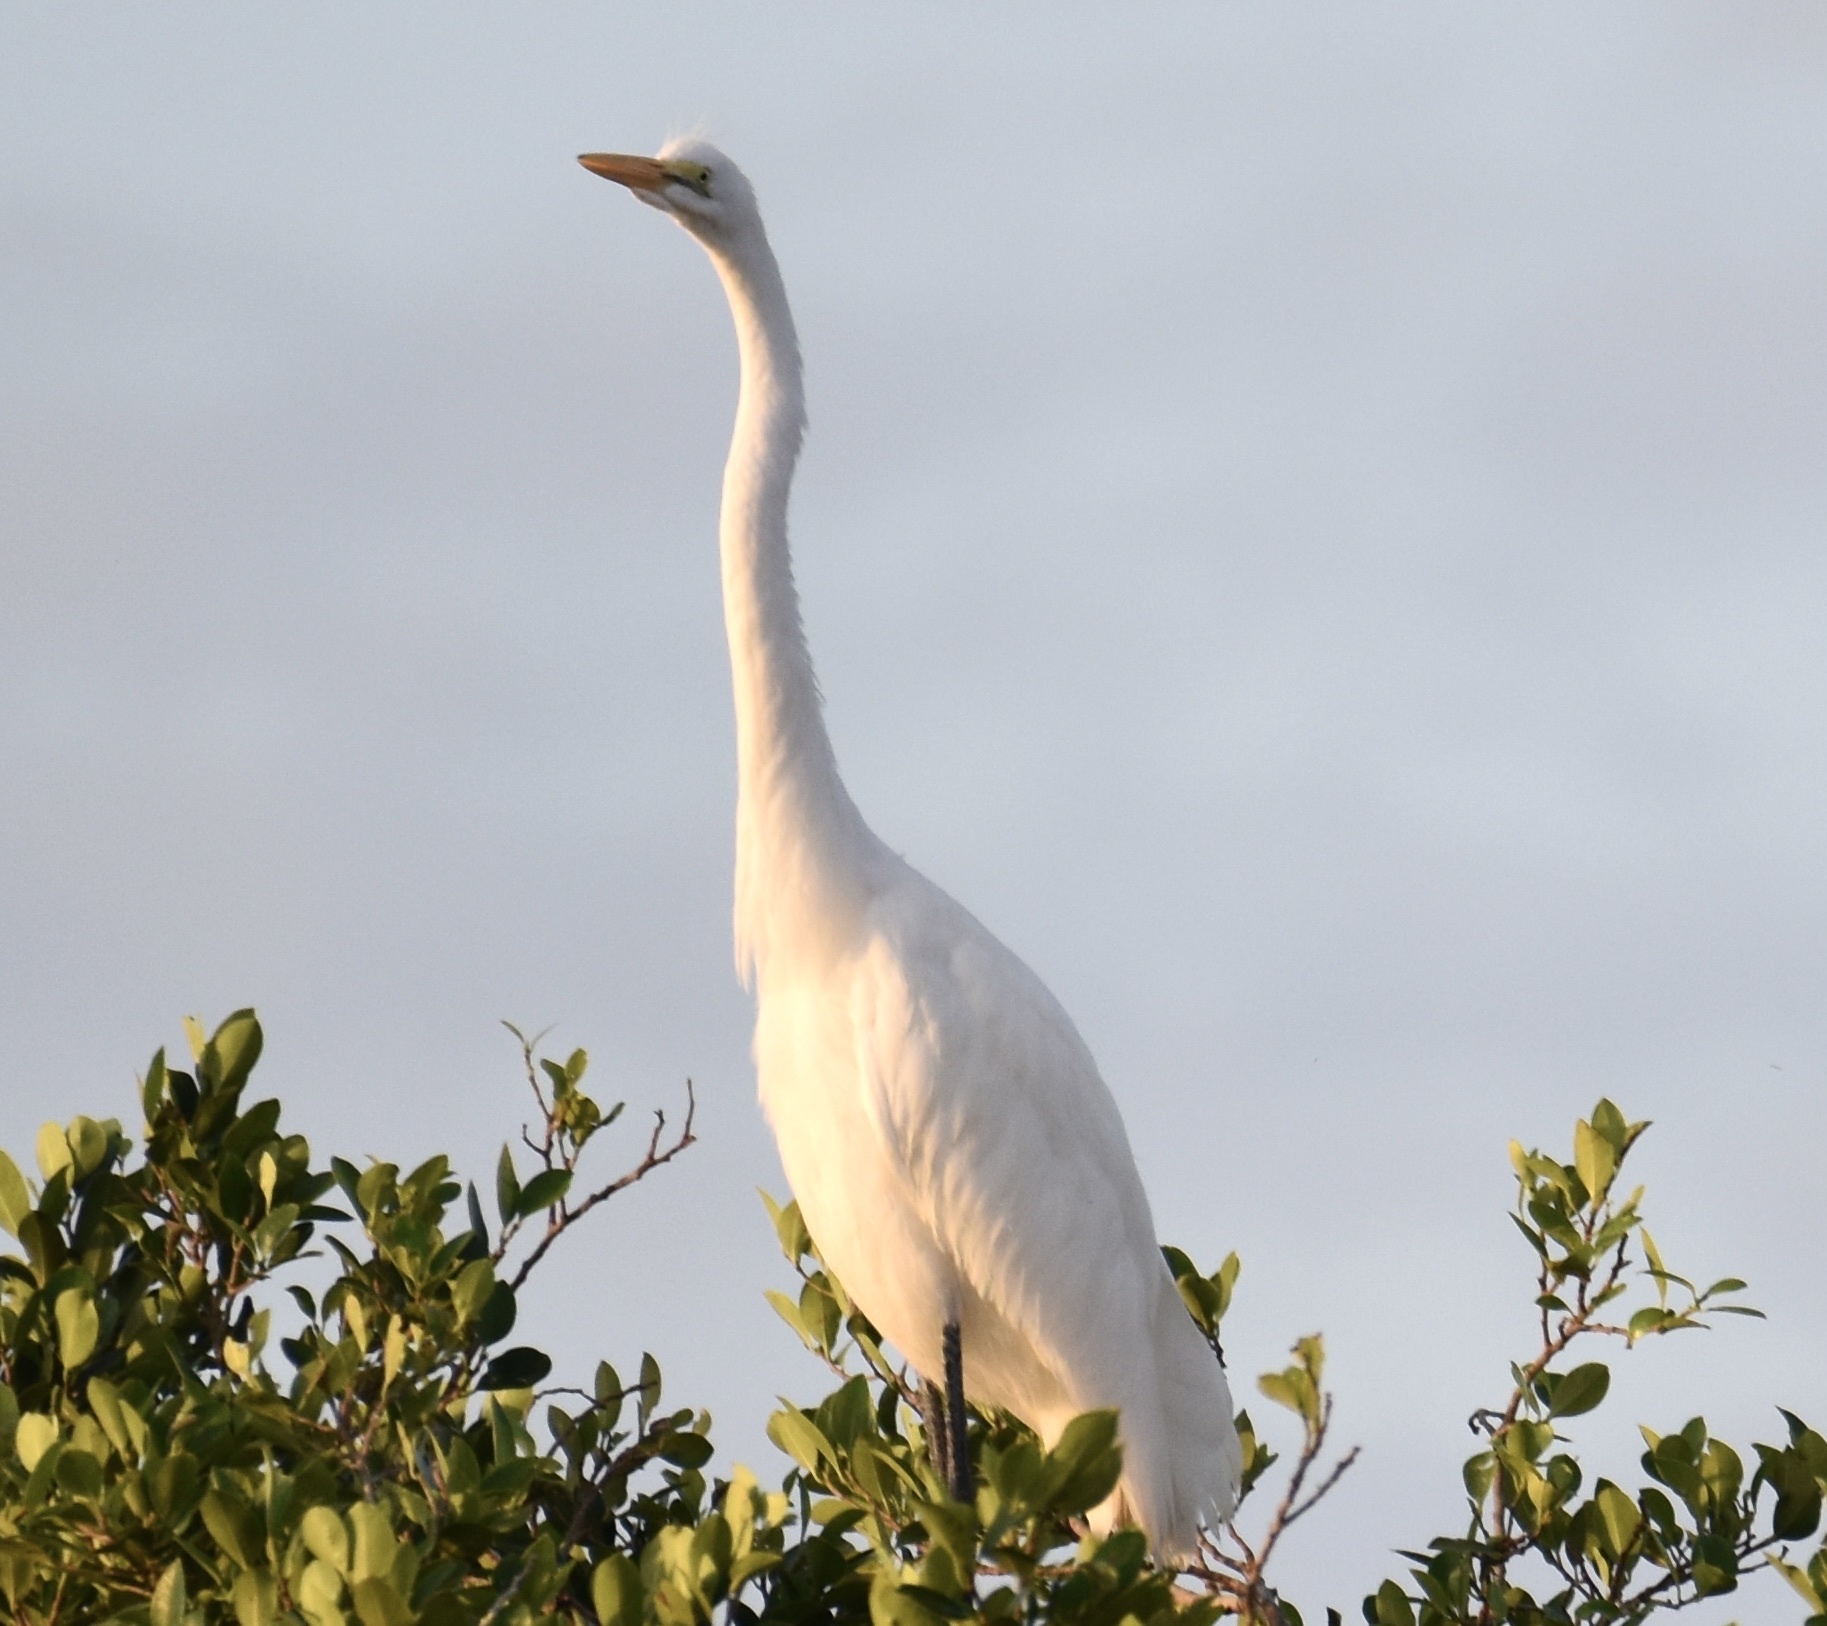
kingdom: Animalia
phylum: Chordata
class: Aves
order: Pelecaniformes
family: Ardeidae
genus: Ardea
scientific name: Ardea alba
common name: Great egret
